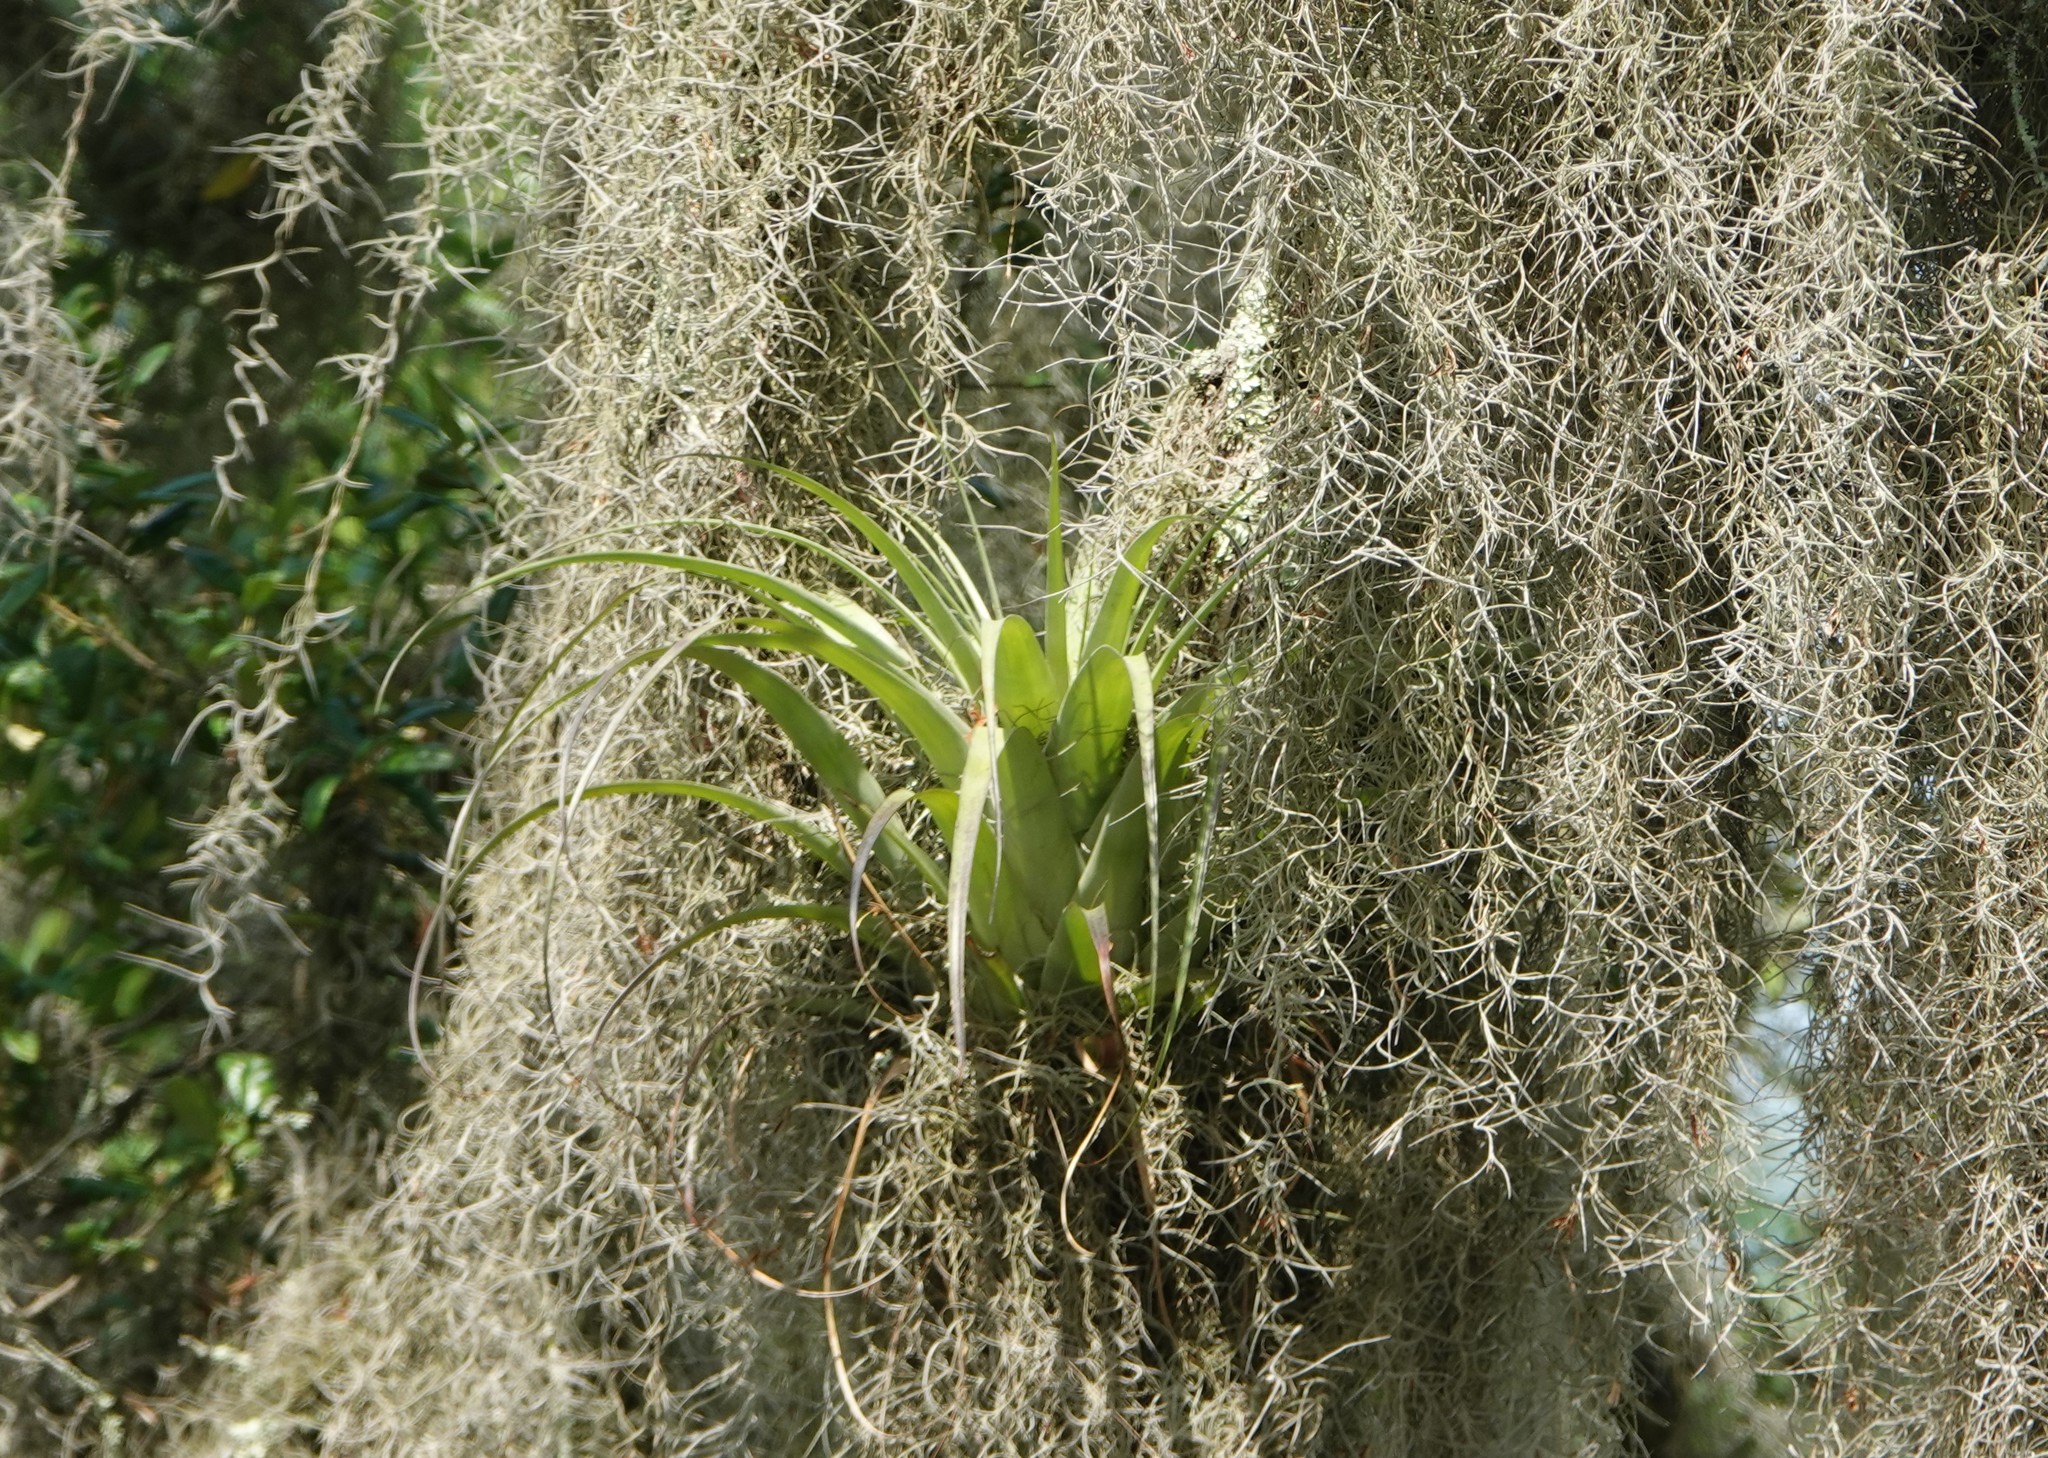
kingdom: Plantae
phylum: Tracheophyta
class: Liliopsida
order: Poales
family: Bromeliaceae
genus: Tillandsia
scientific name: Tillandsia utriculata
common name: Wild pine
